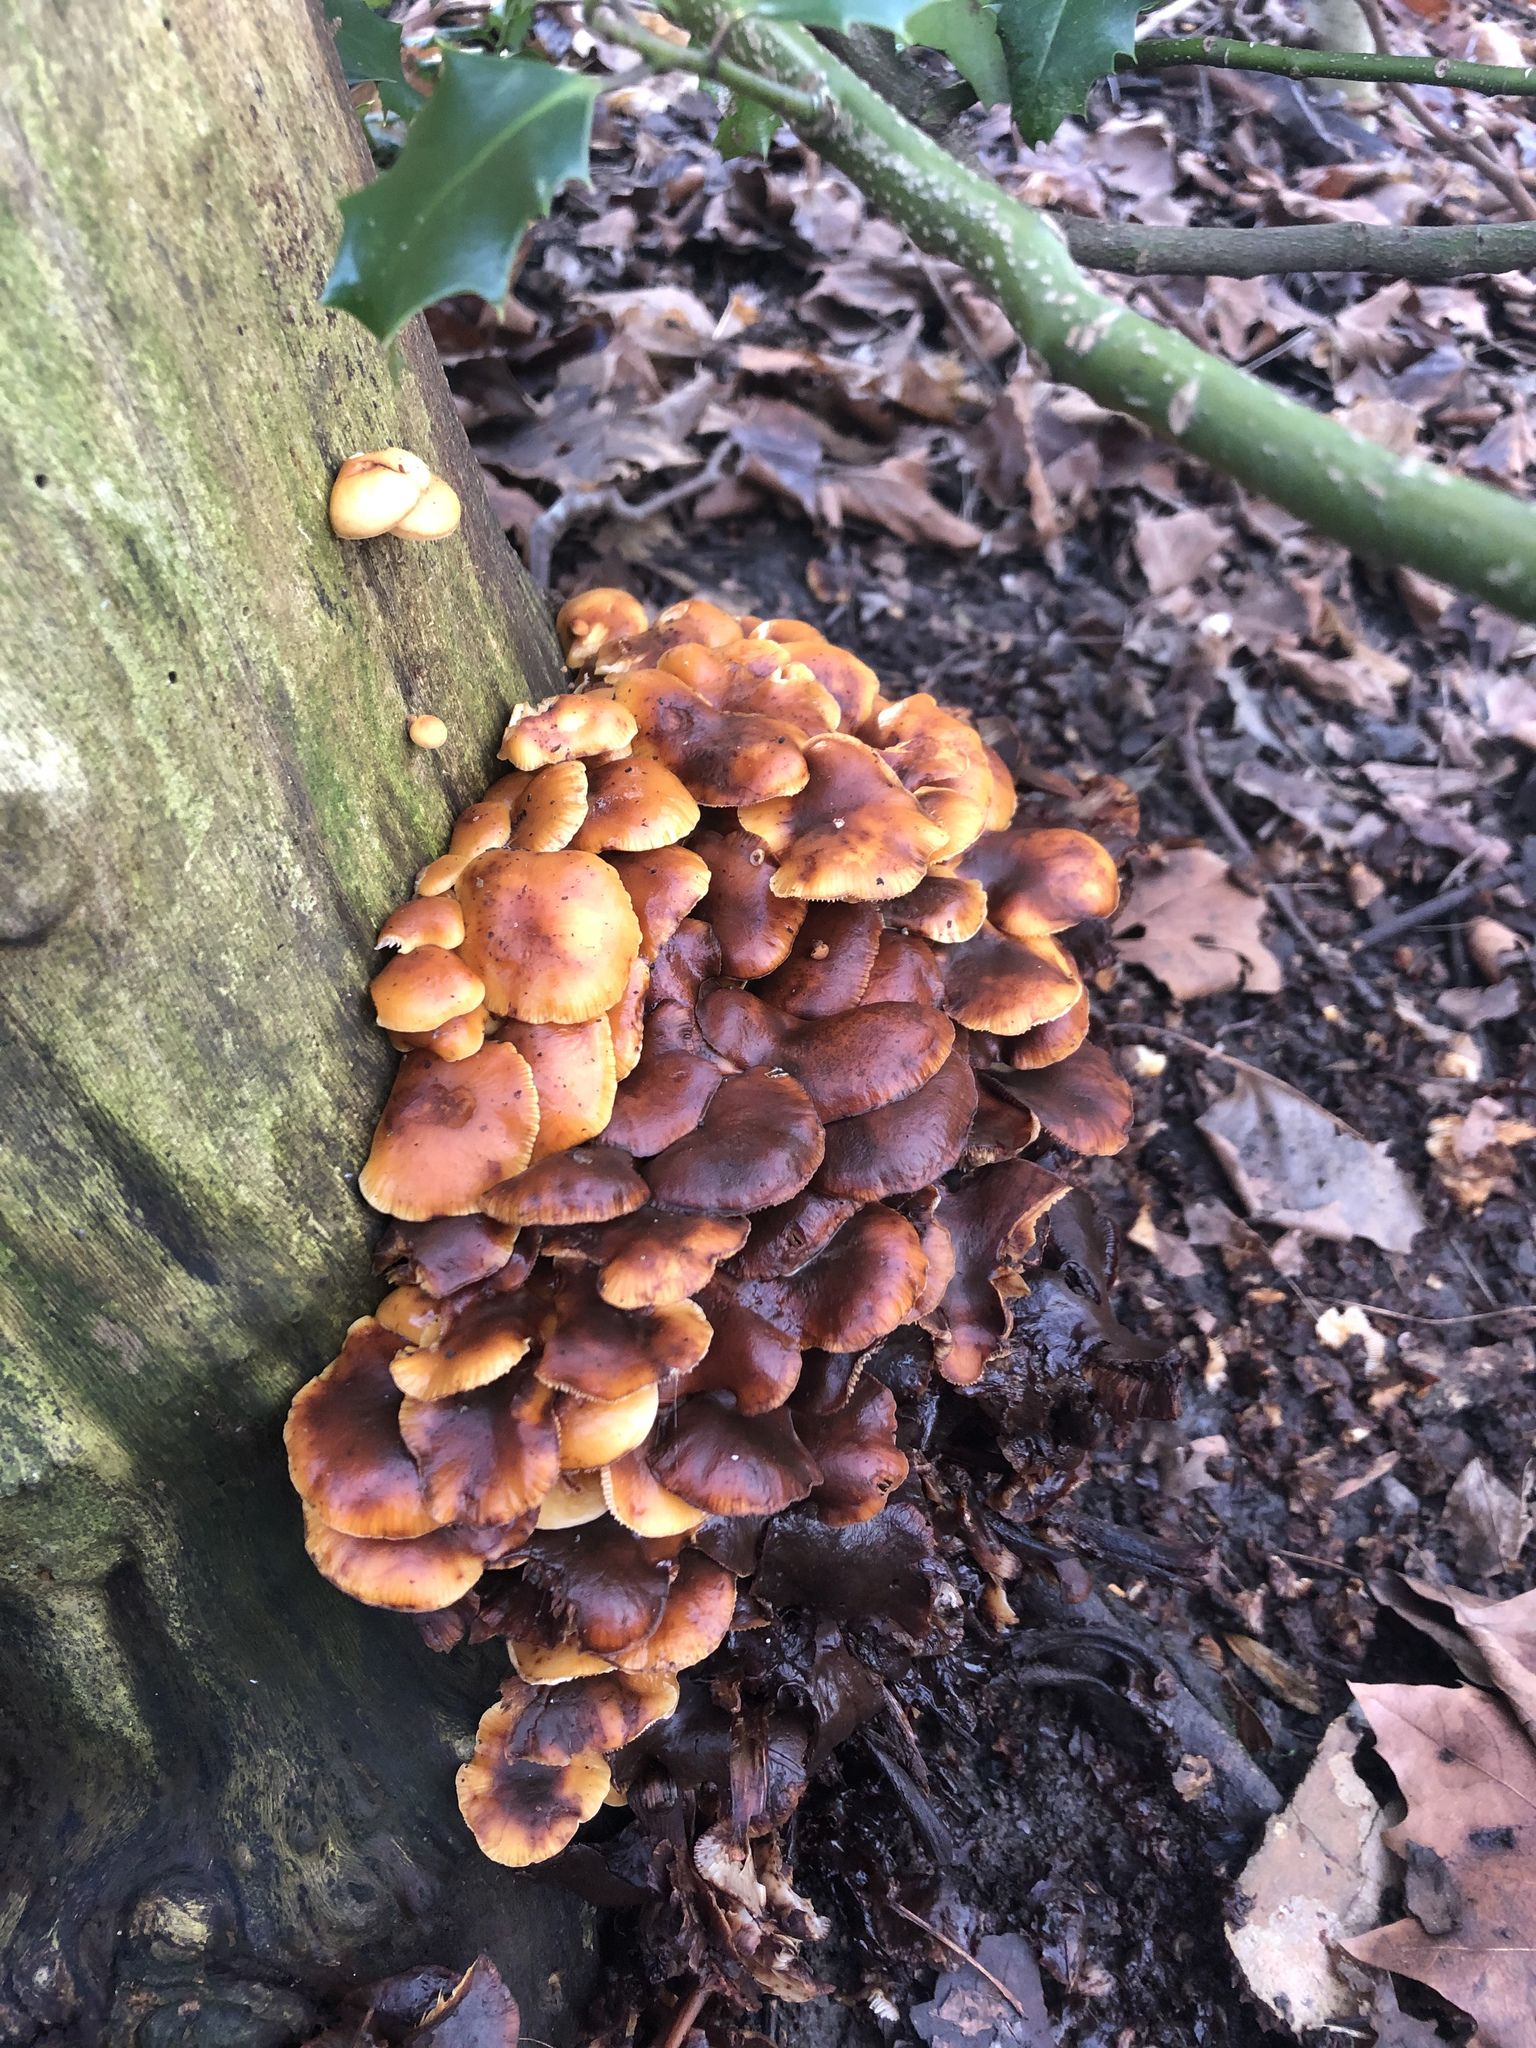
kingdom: Fungi
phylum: Basidiomycota
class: Agaricomycetes
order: Agaricales
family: Physalacriaceae
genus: Flammulina
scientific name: Flammulina
